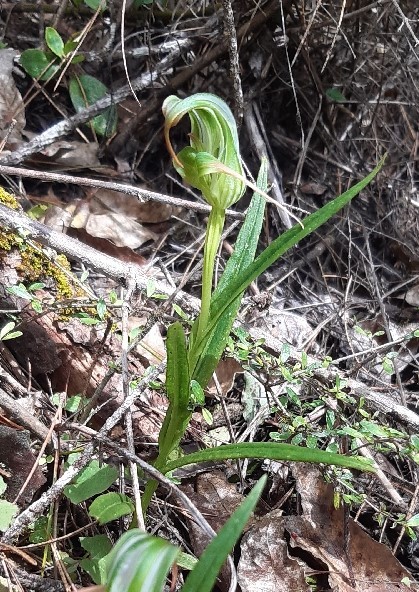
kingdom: Plantae
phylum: Tracheophyta
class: Liliopsida
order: Asparagales
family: Orchidaceae
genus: Pterostylis
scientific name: Pterostylis patens
